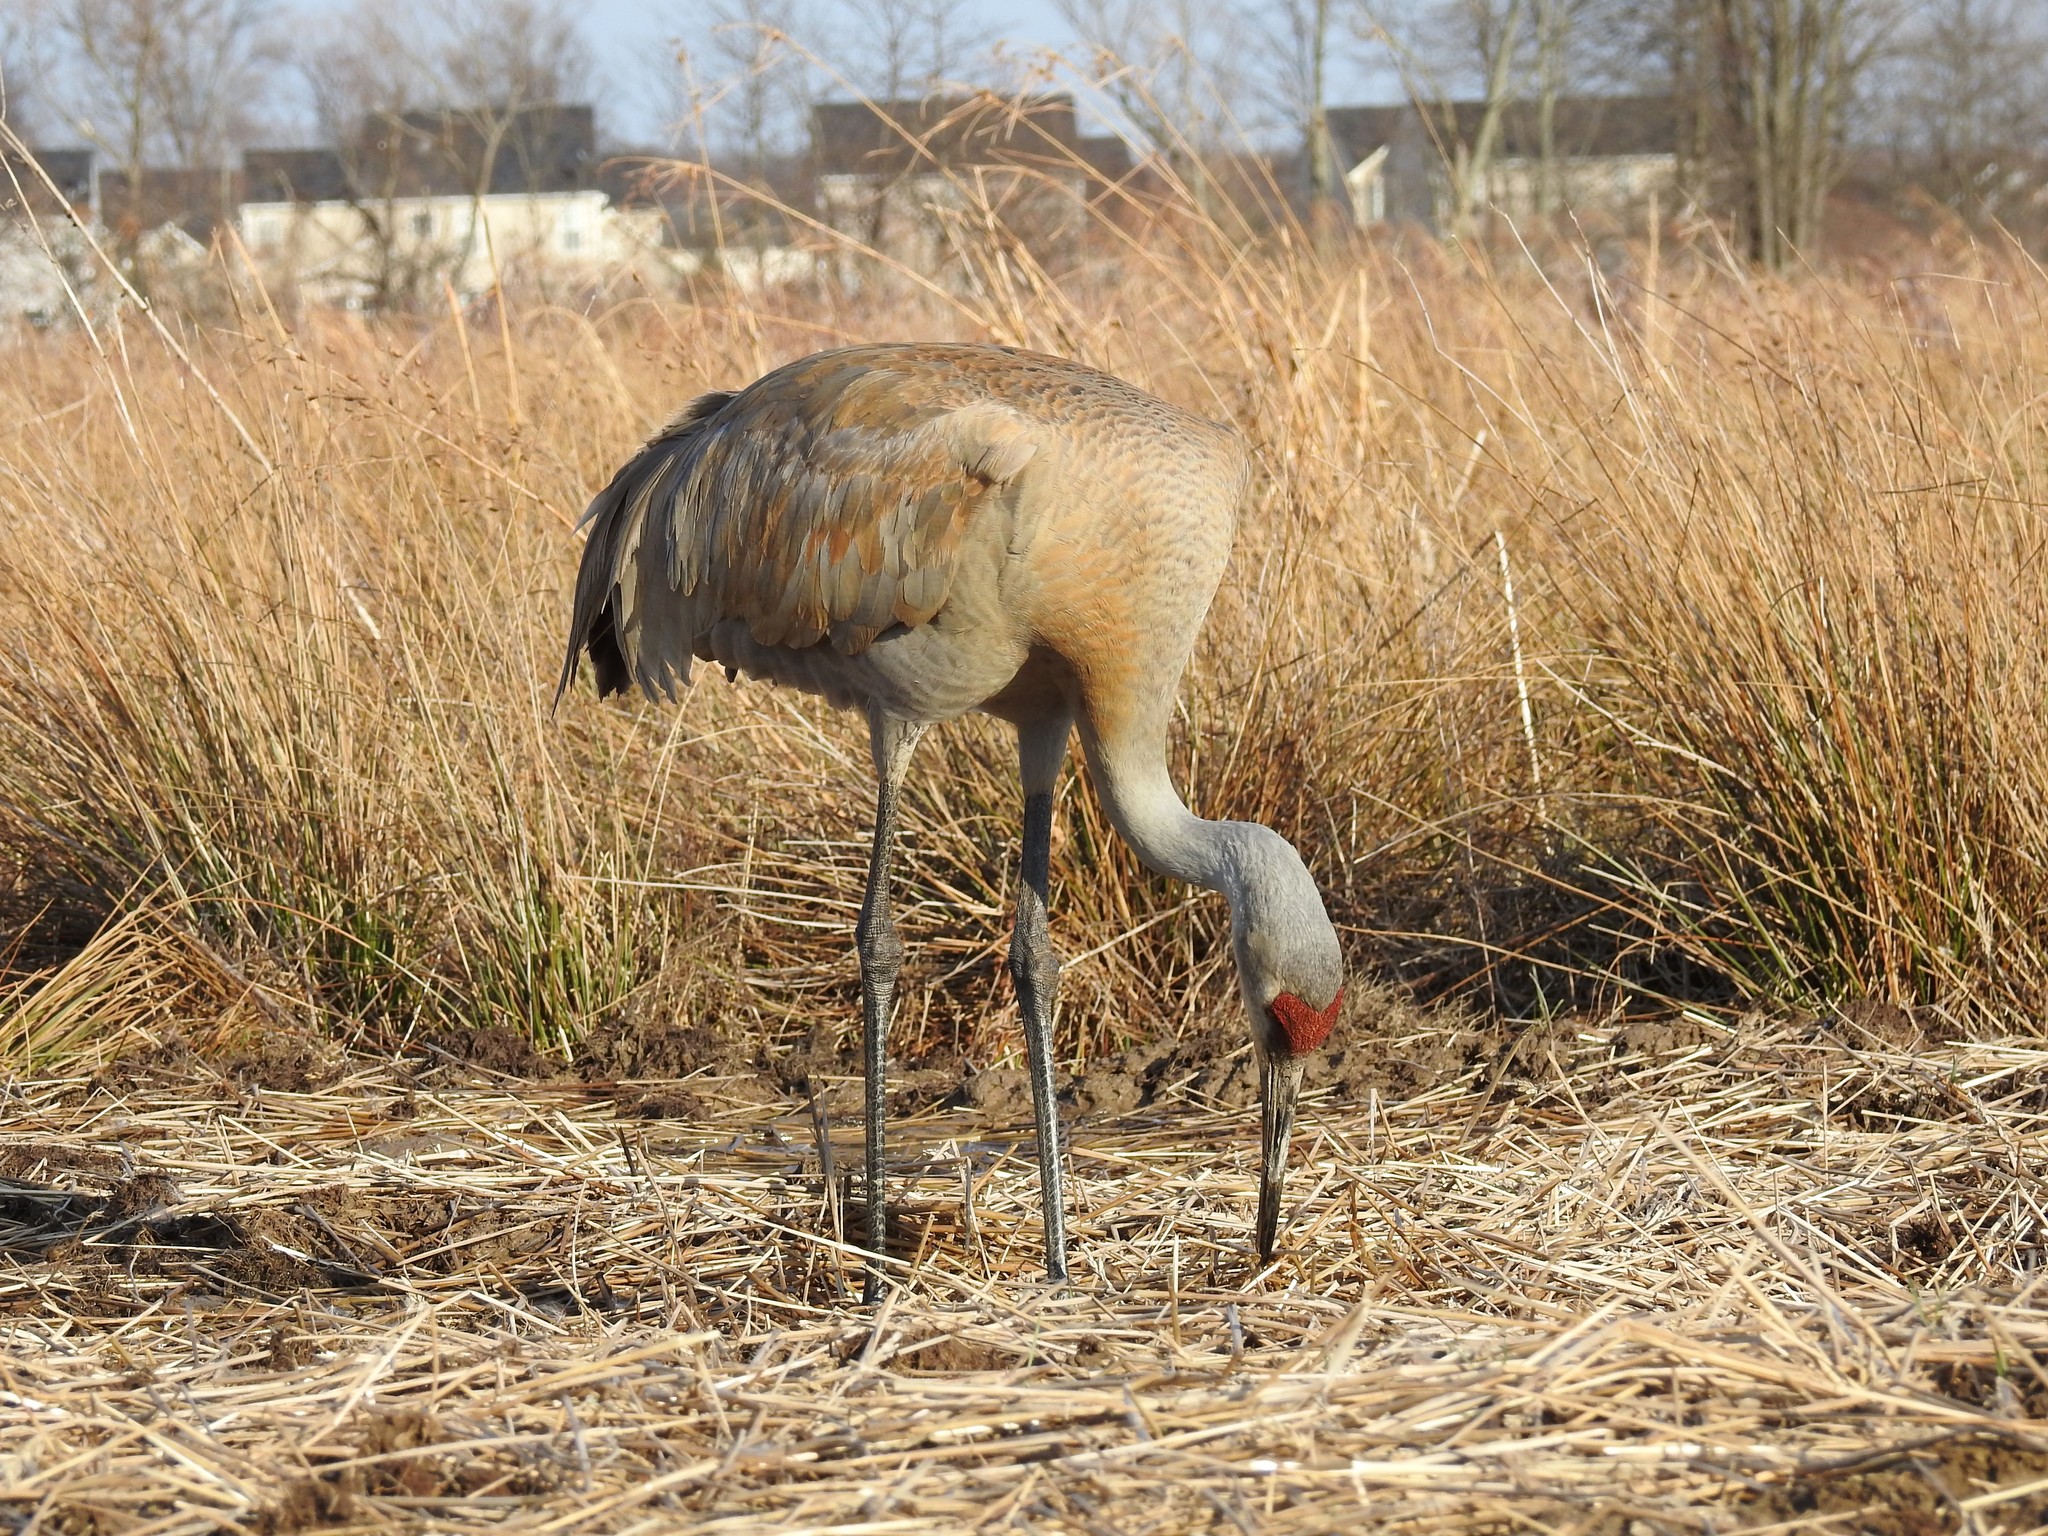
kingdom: Animalia
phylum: Chordata
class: Aves
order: Gruiformes
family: Gruidae
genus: Grus
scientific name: Grus canadensis
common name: Sandhill crane
